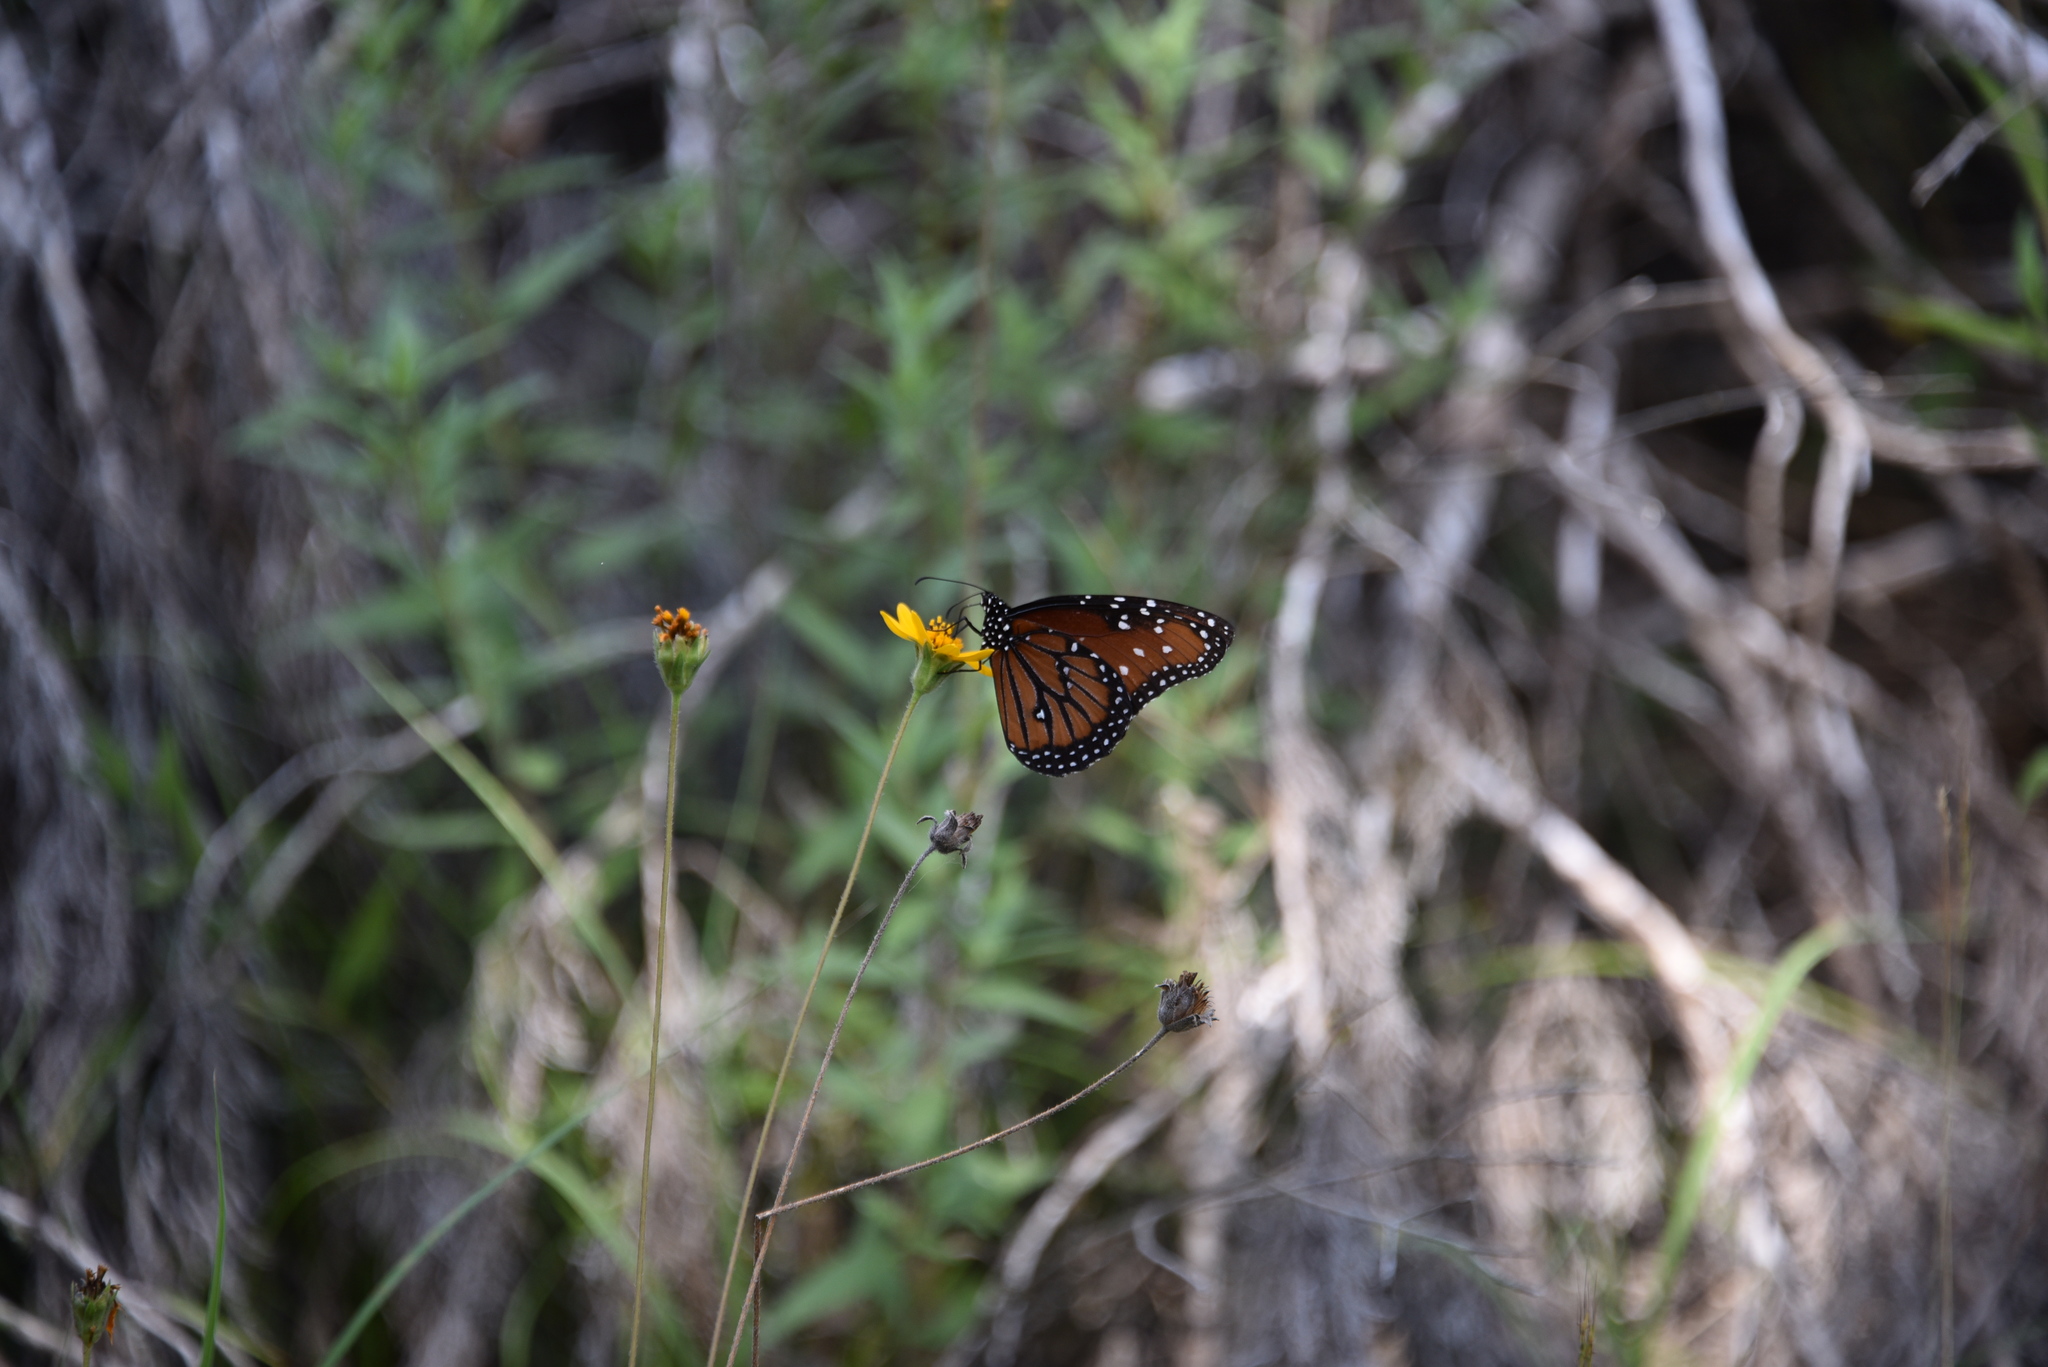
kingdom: Animalia
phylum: Arthropoda
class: Insecta
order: Lepidoptera
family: Nymphalidae
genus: Danaus
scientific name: Danaus gilippus
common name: Queen
